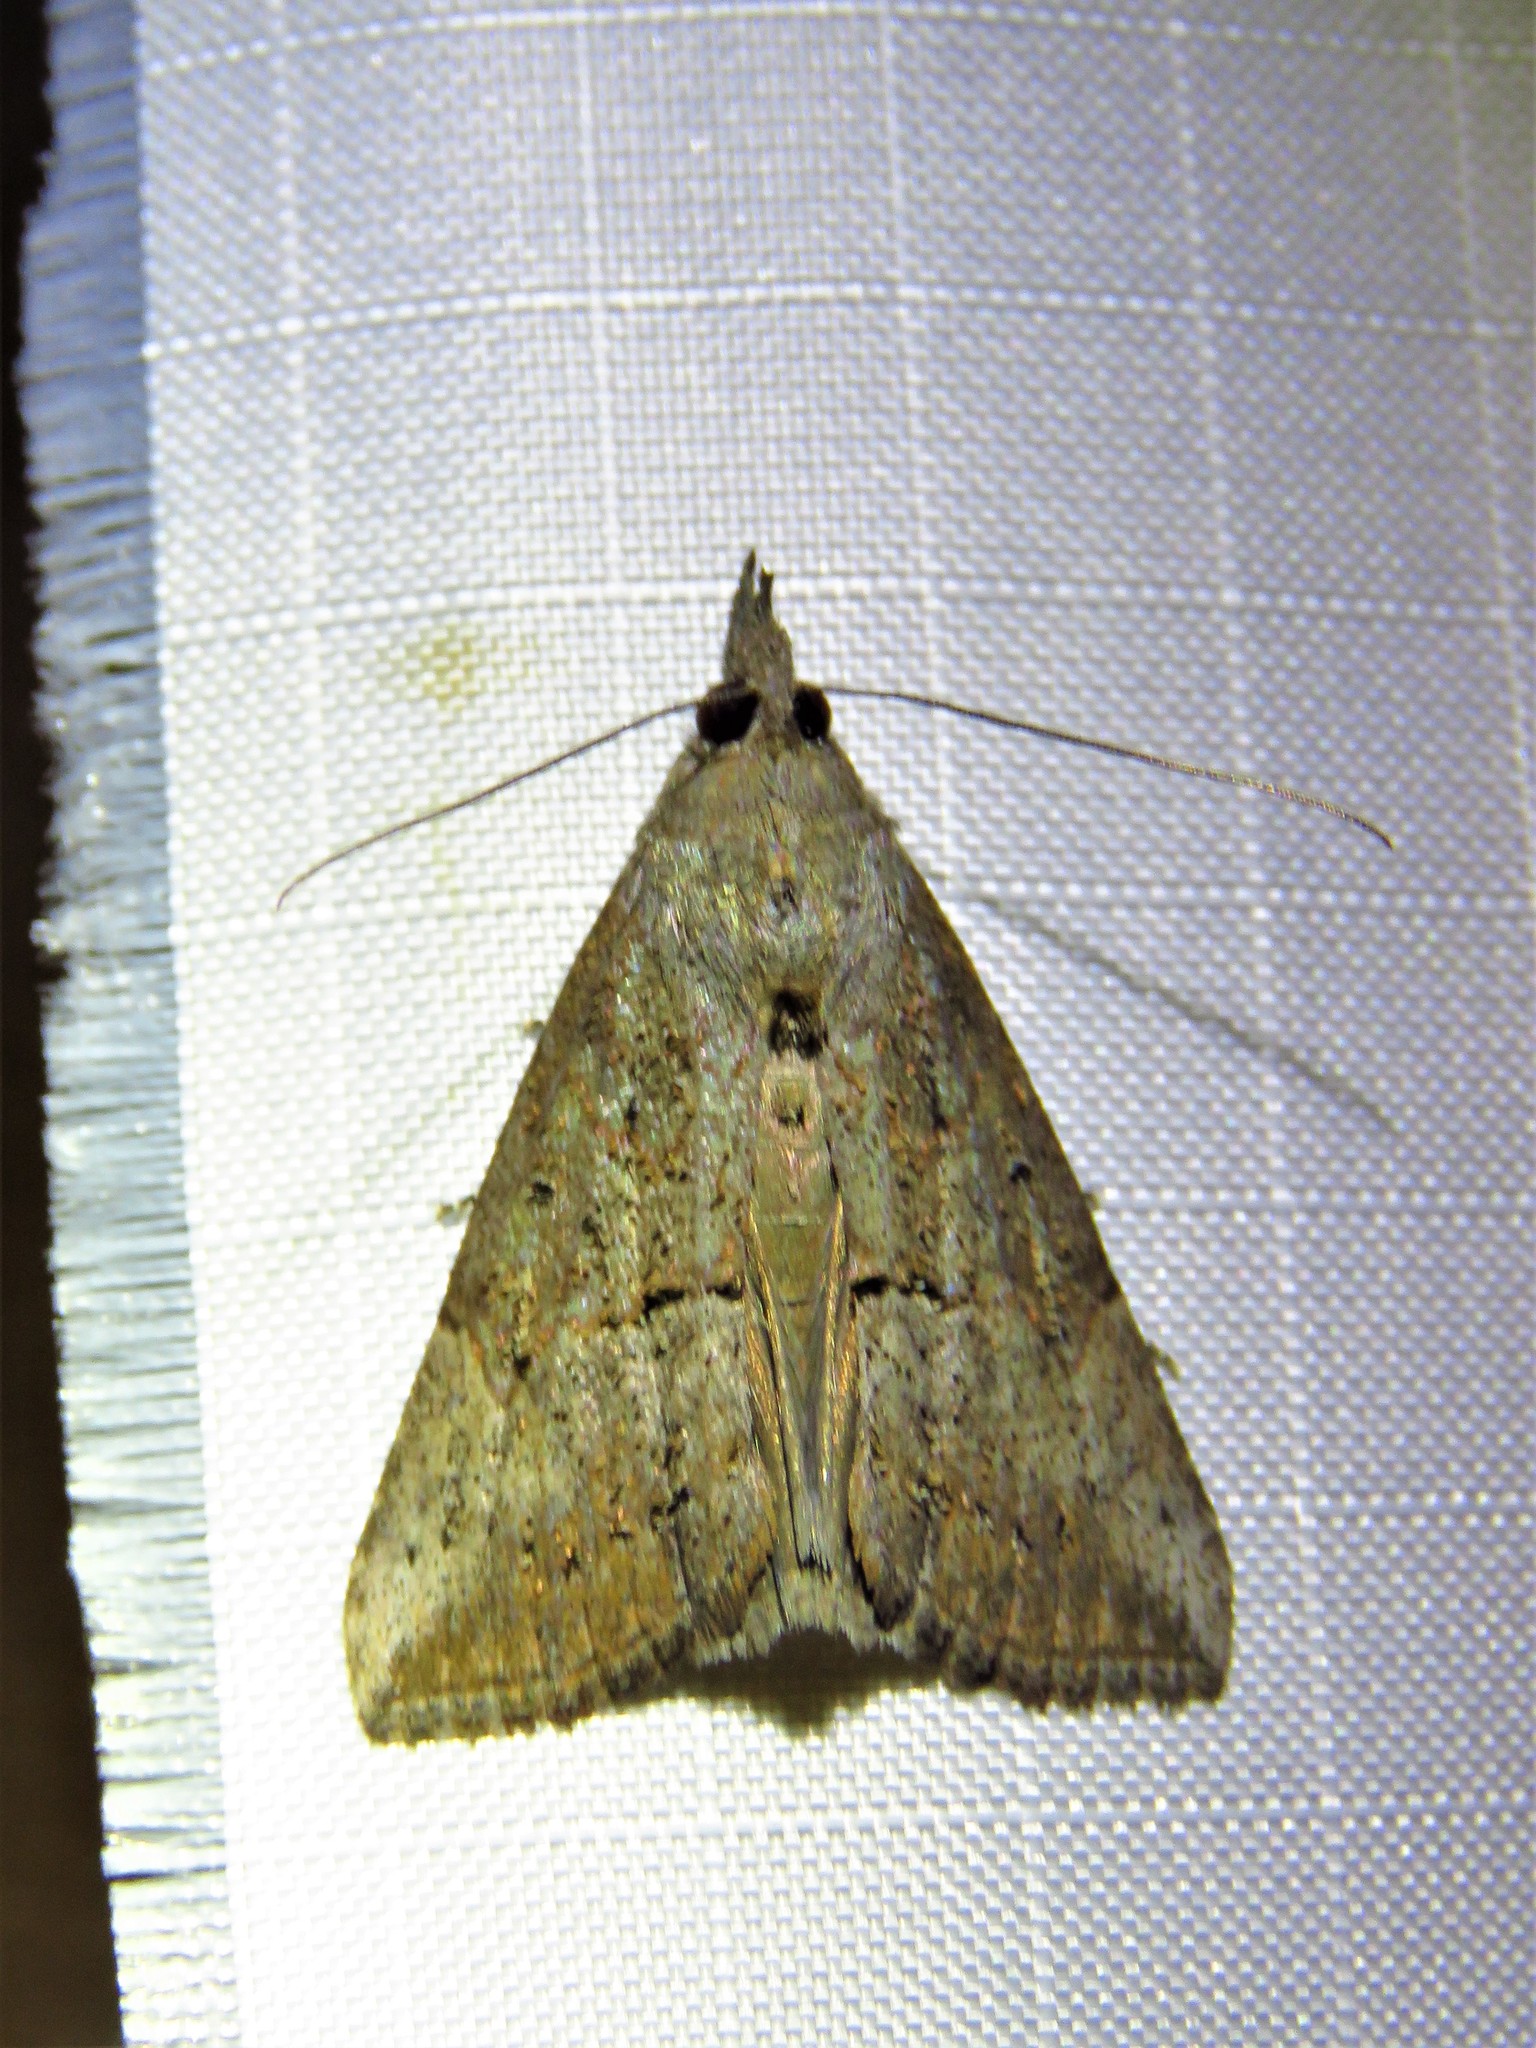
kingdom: Animalia
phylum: Arthropoda
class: Insecta
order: Lepidoptera
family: Erebidae
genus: Hypena
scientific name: Hypena scabra
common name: Green cloverworm
